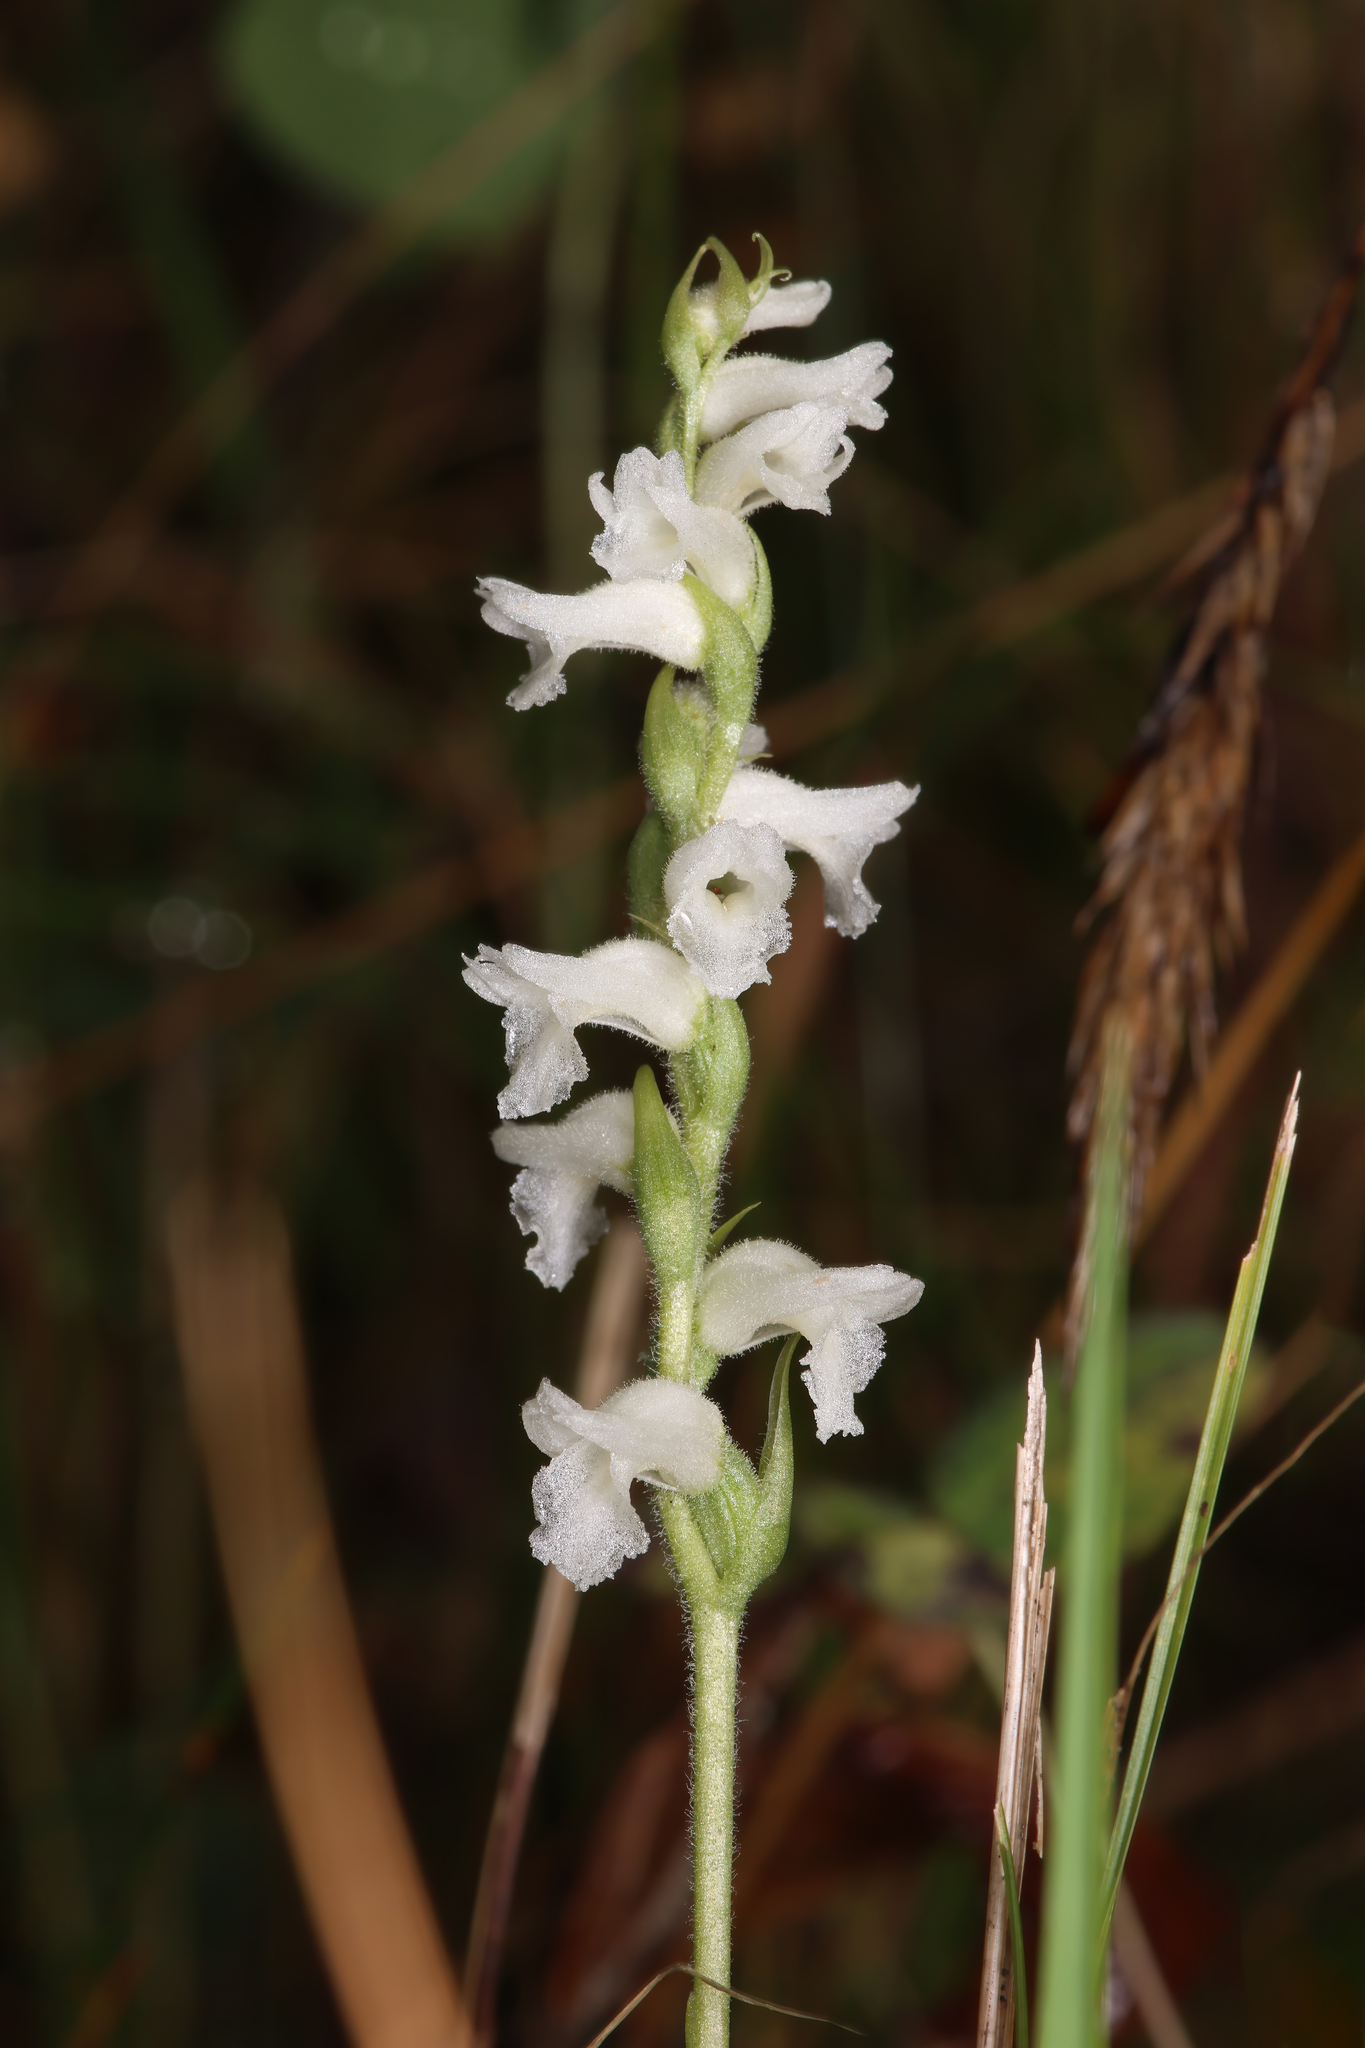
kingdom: Plantae
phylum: Tracheophyta
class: Liliopsida
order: Asparagales
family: Orchidaceae
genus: Spiranthes
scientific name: Spiranthes incurva
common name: Sphinx ladies'-tresses
